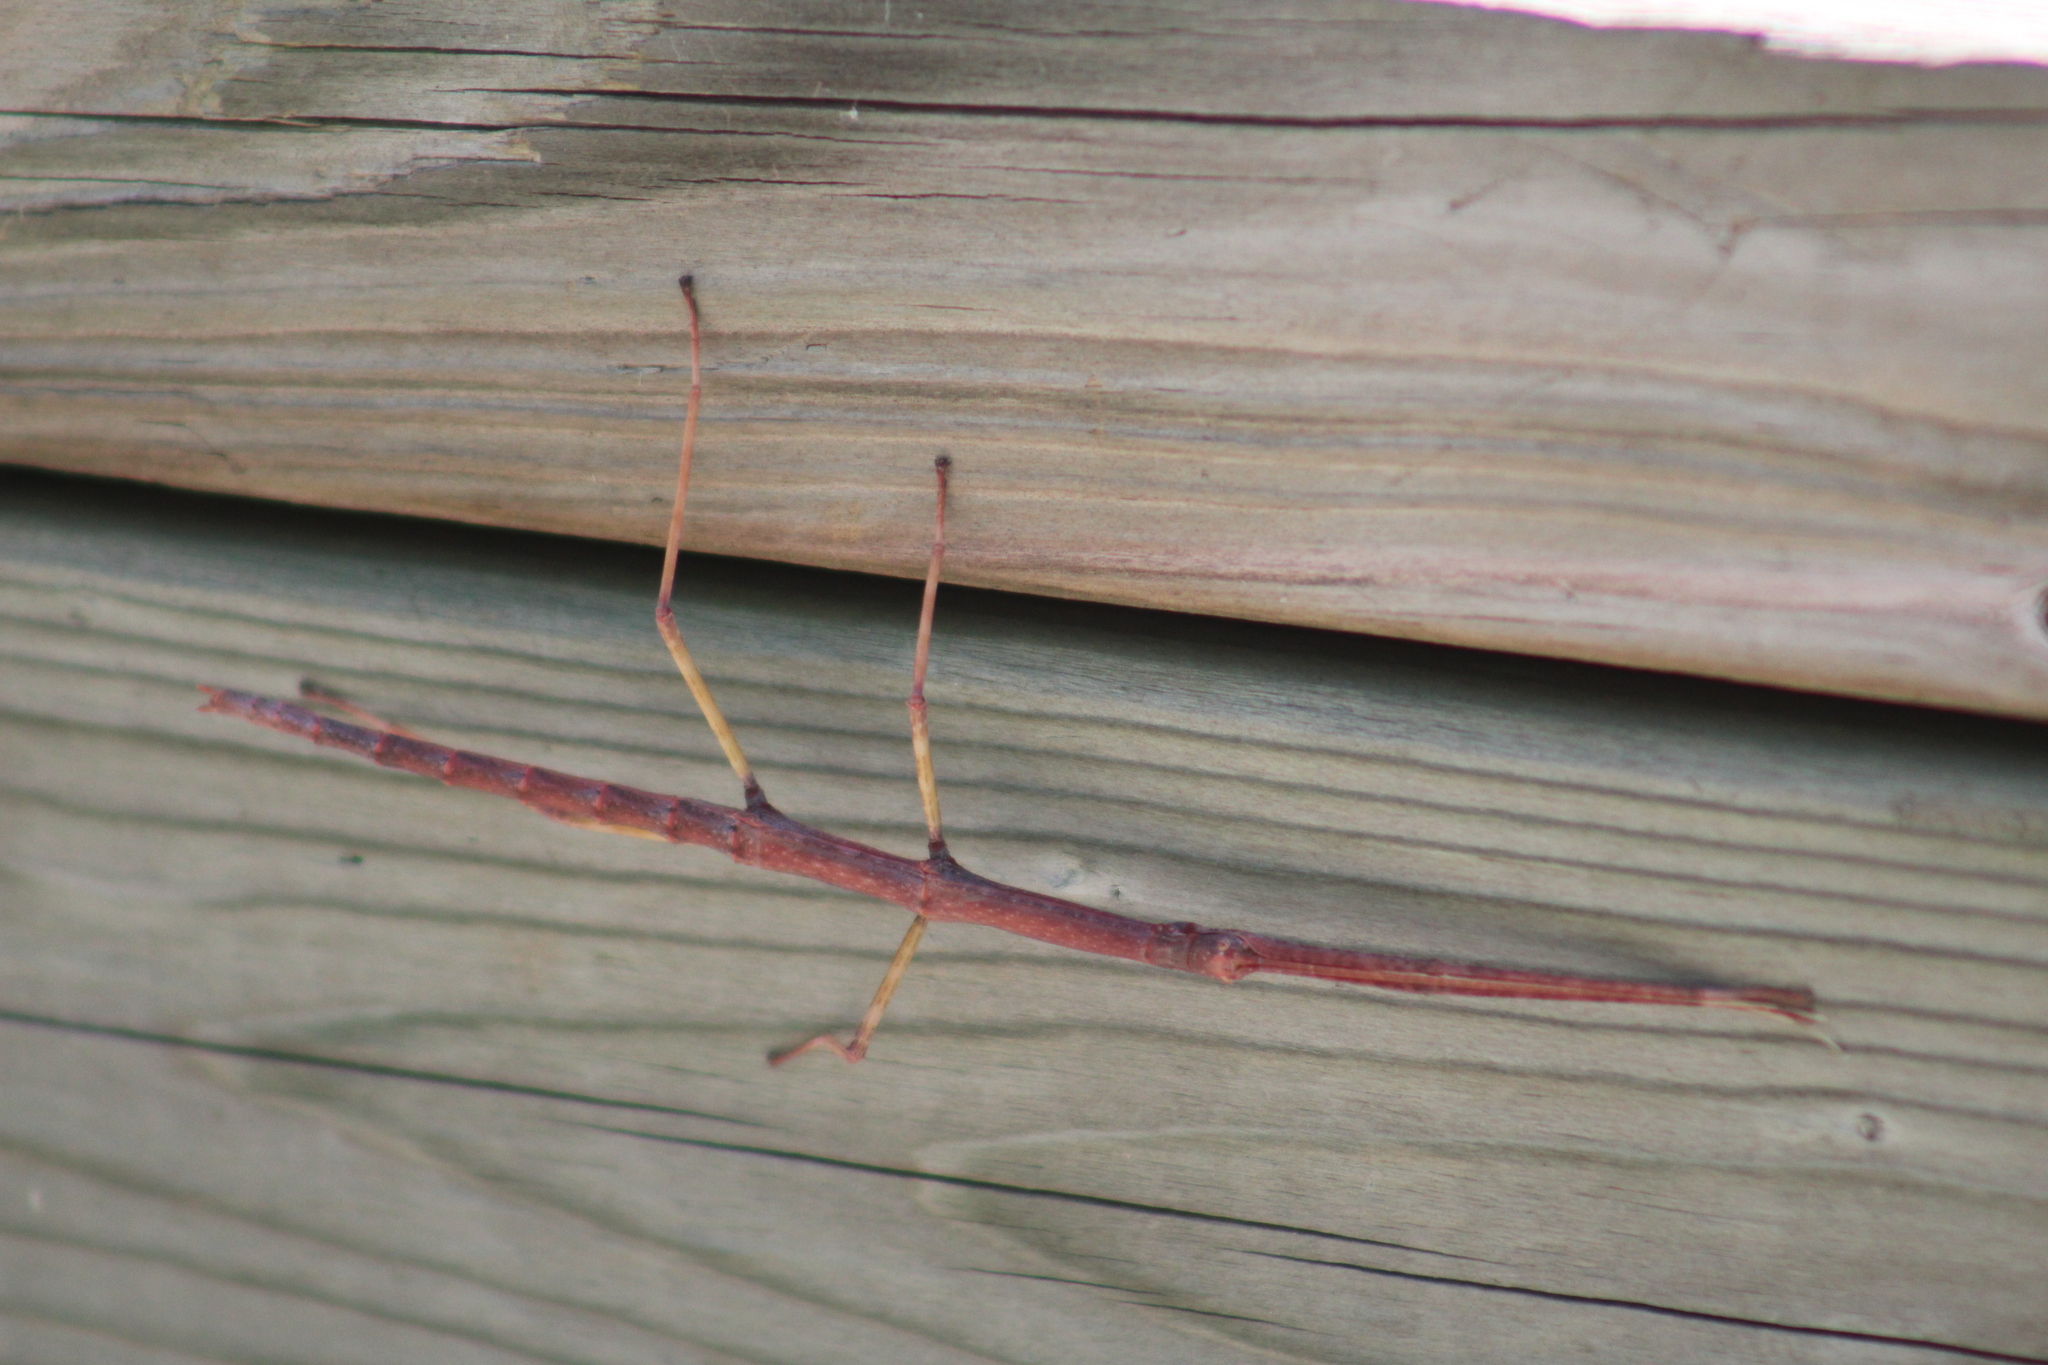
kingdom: Animalia
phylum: Arthropoda
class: Insecta
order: Phasmida
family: Diapheromeridae
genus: Diapheromera
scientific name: Diapheromera femorata
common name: Common american walkingstick
